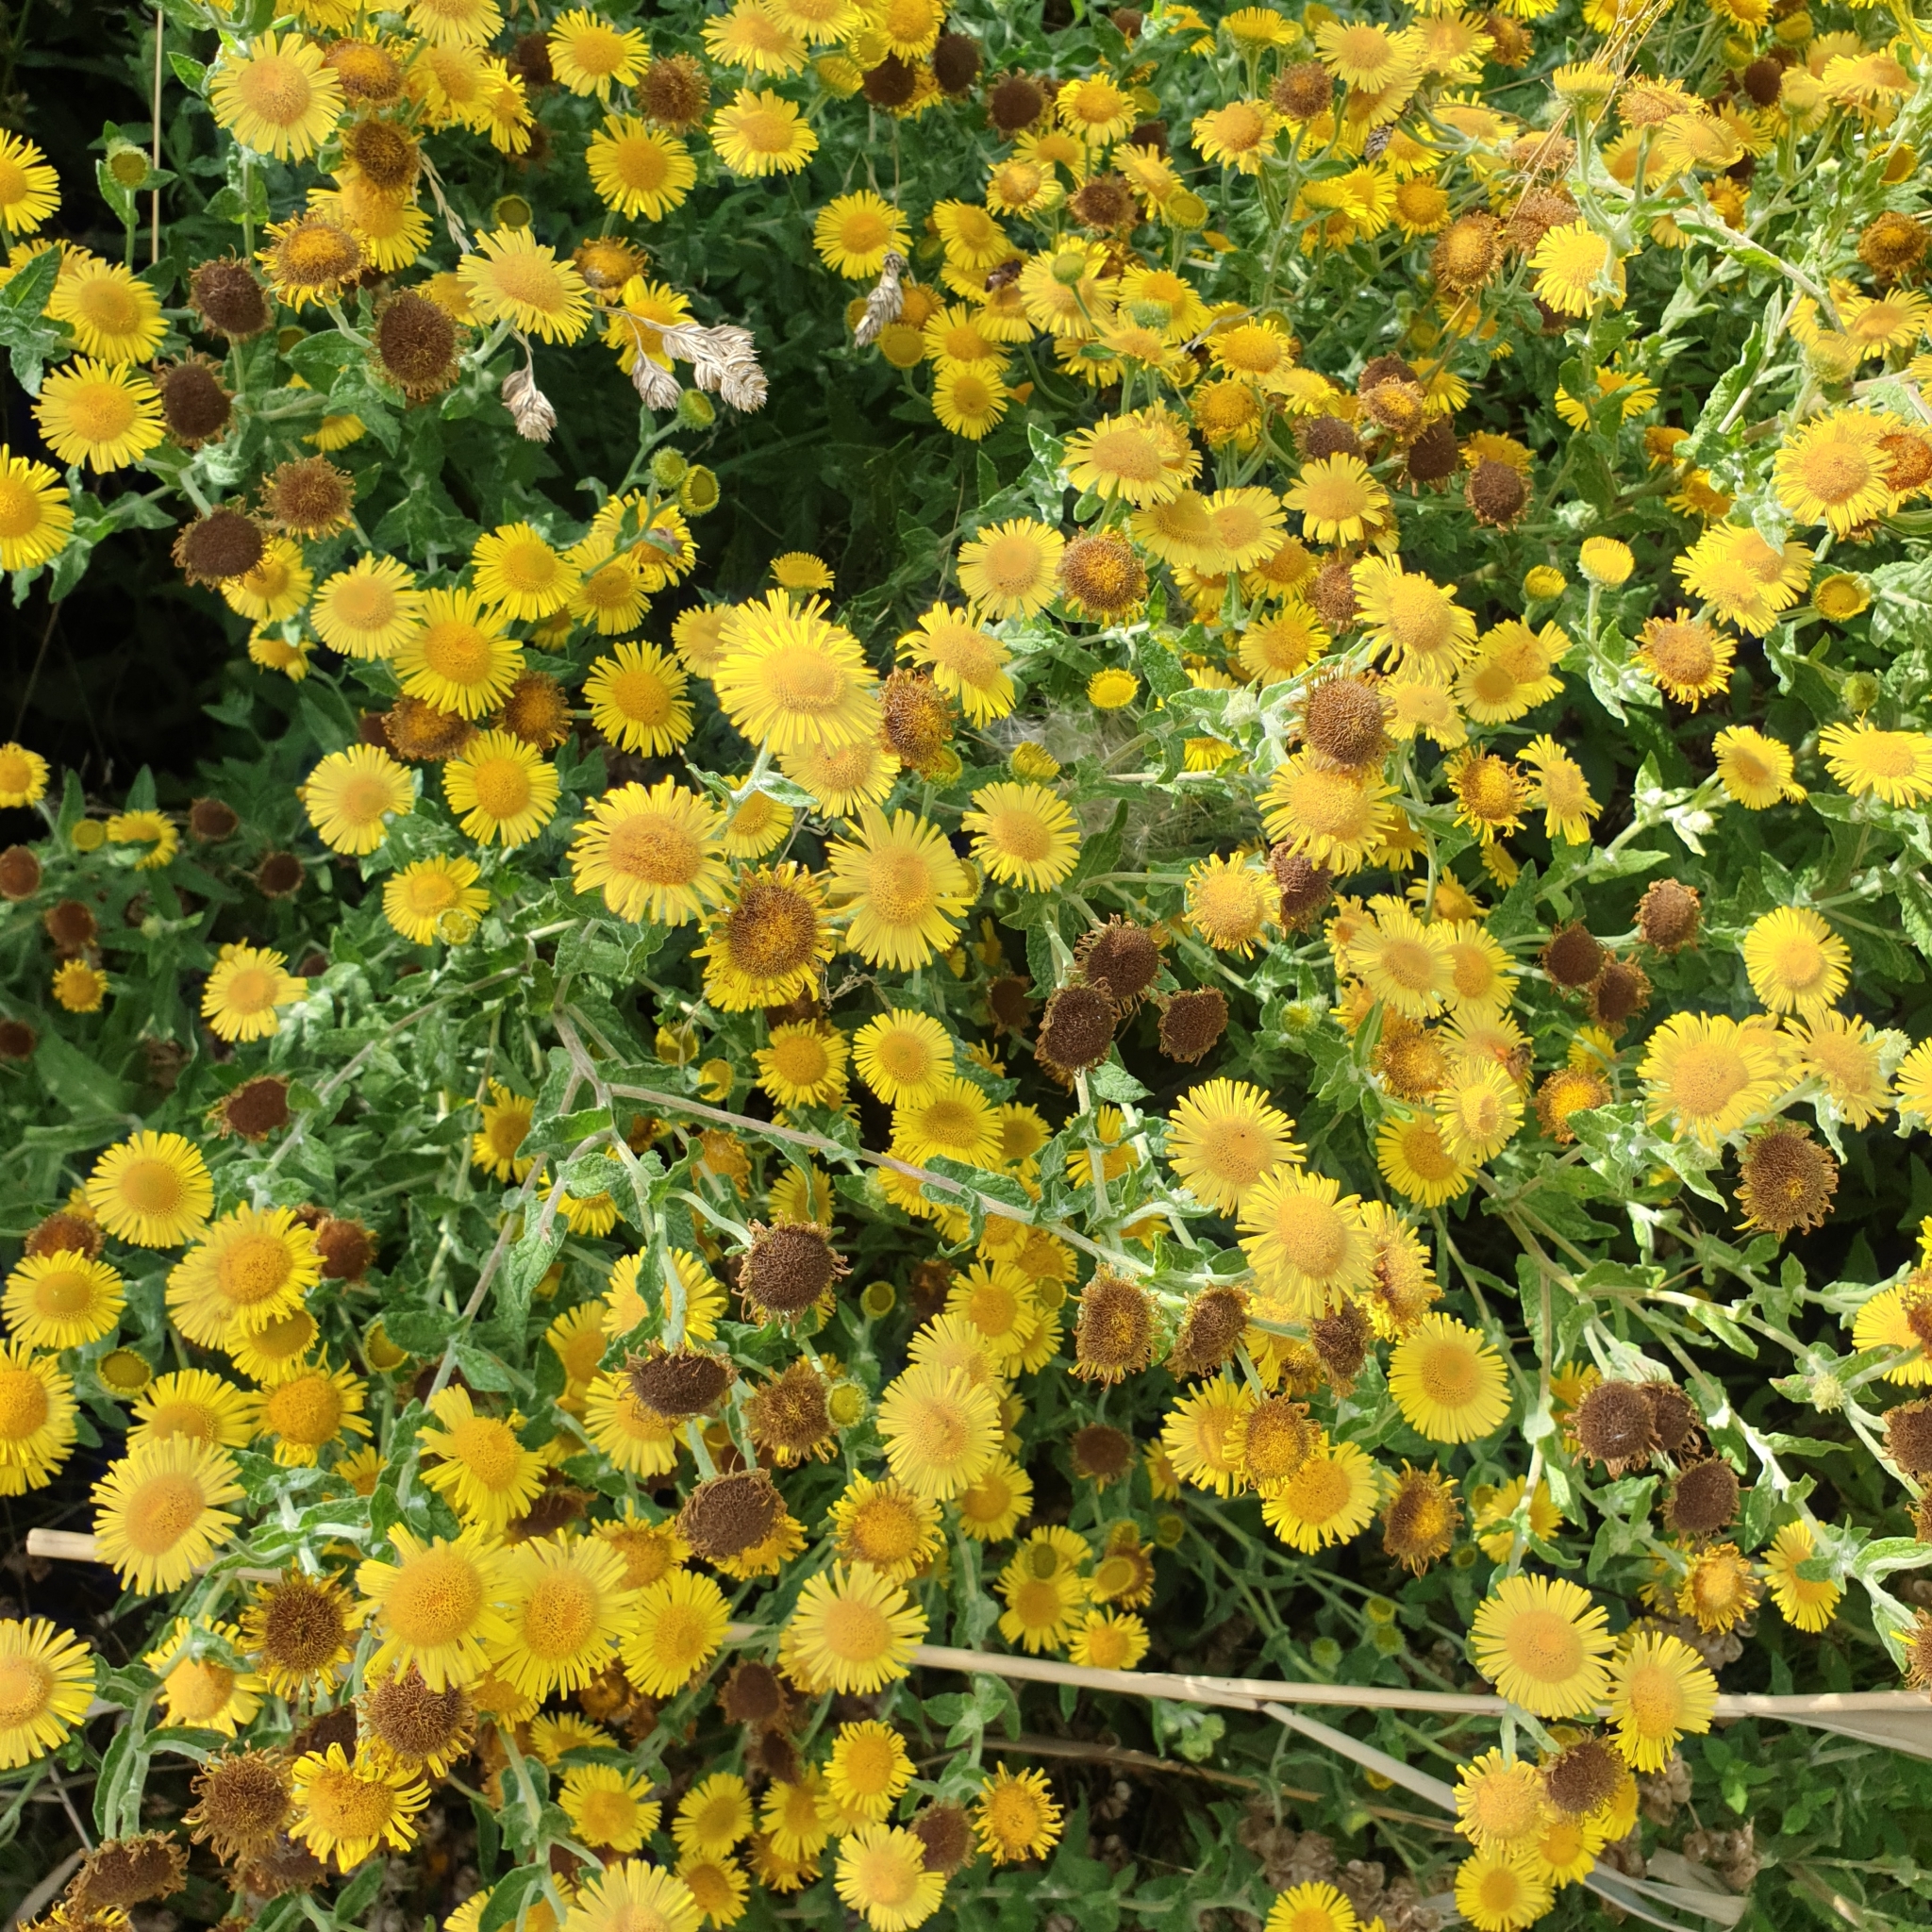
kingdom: Plantae
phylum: Tracheophyta
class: Magnoliopsida
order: Asterales
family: Asteraceae
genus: Pulicaria
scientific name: Pulicaria dysenterica
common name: Common fleabane
